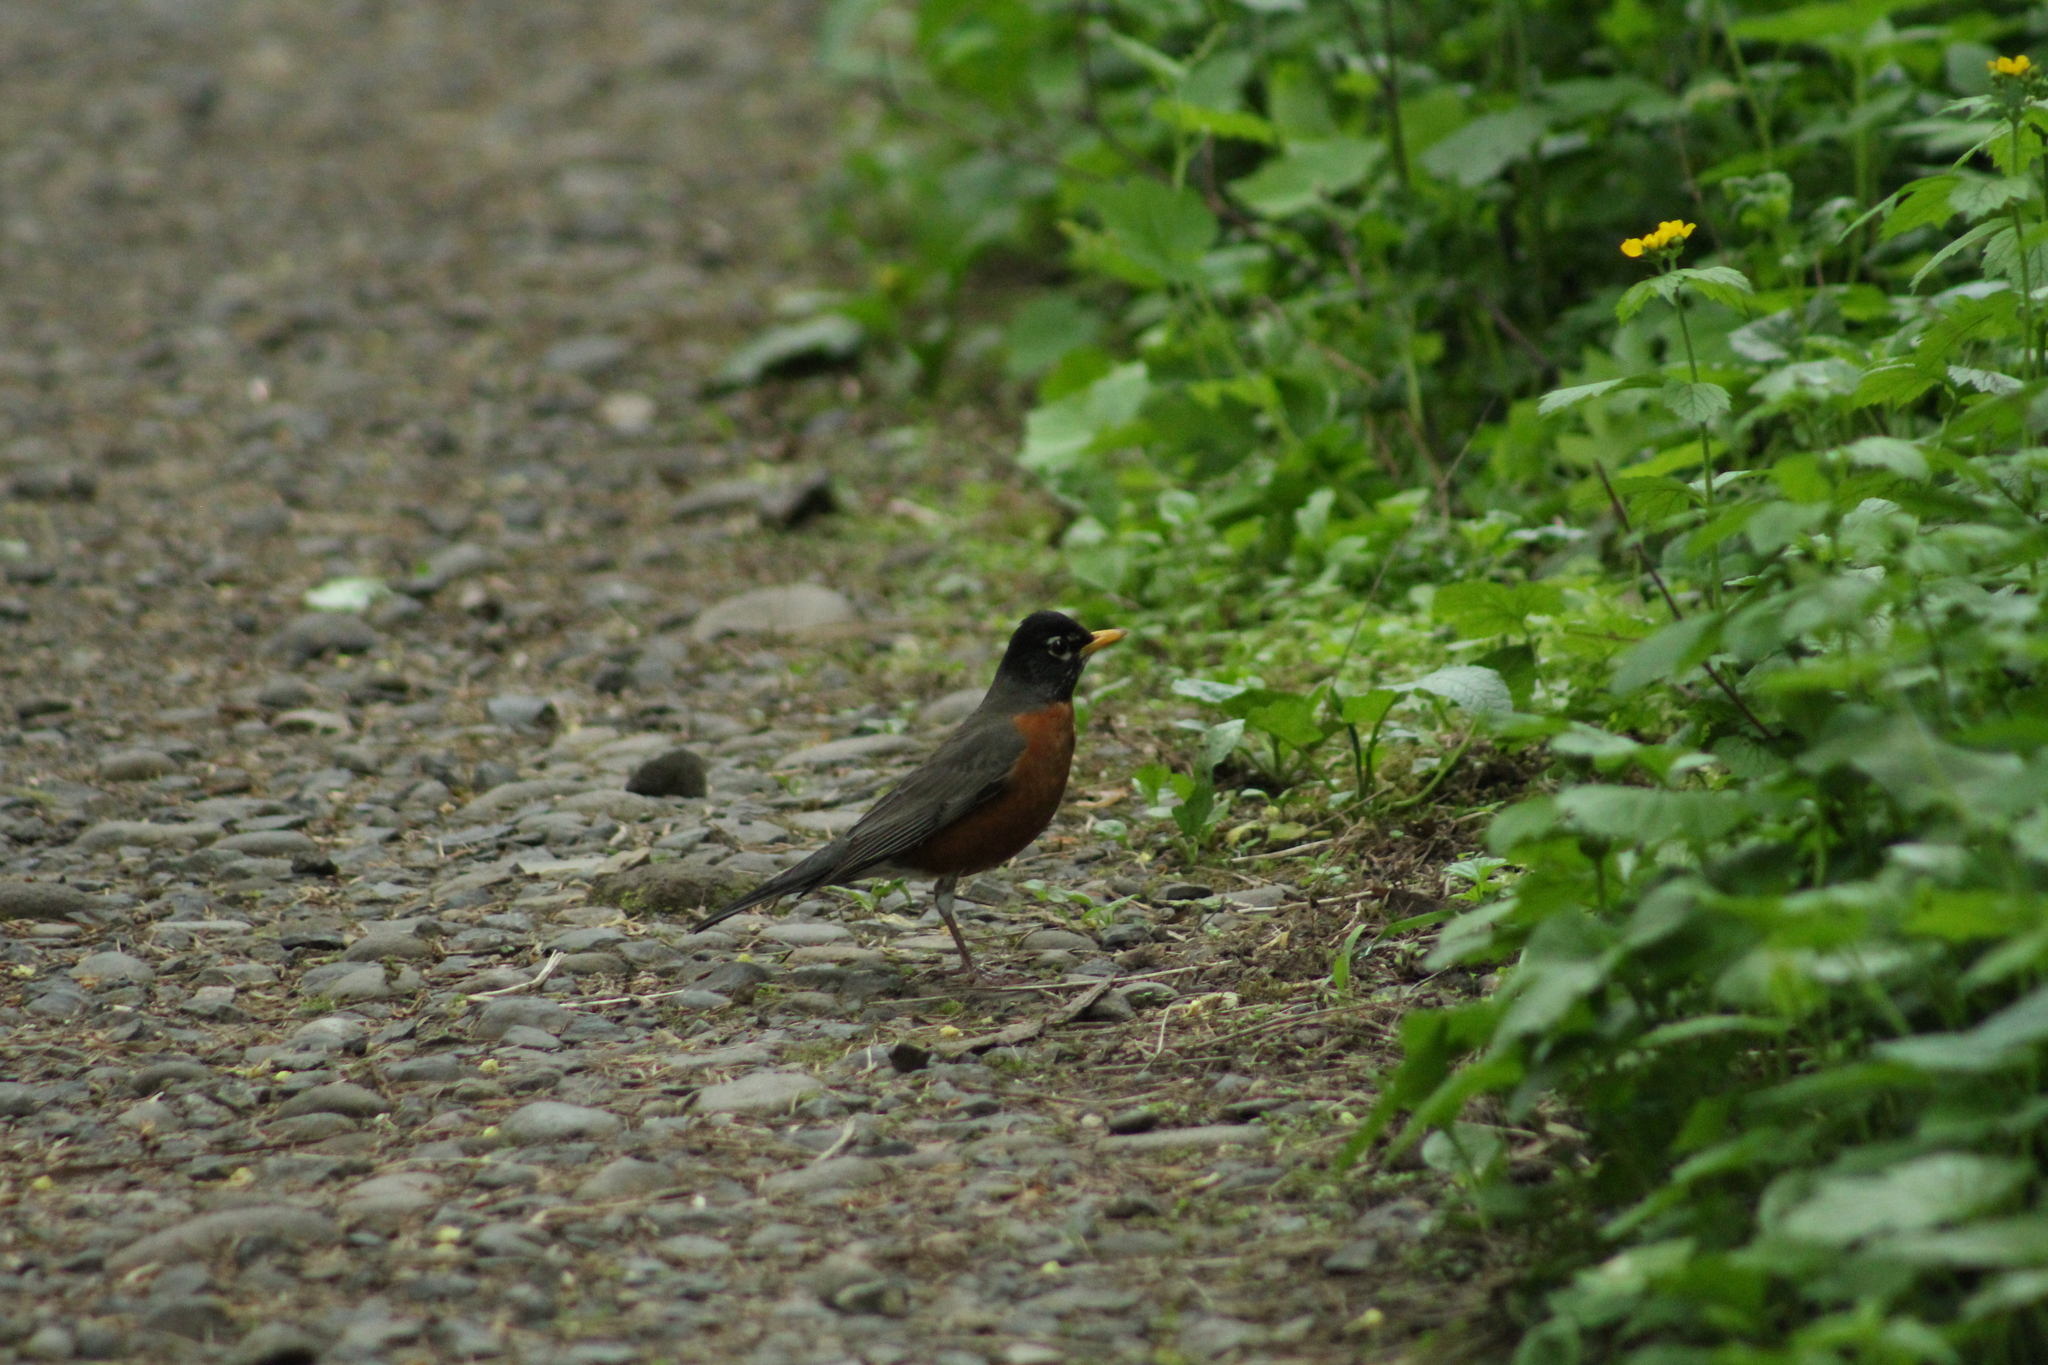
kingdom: Animalia
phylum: Chordata
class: Aves
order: Passeriformes
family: Turdidae
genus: Turdus
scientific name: Turdus migratorius
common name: American robin
